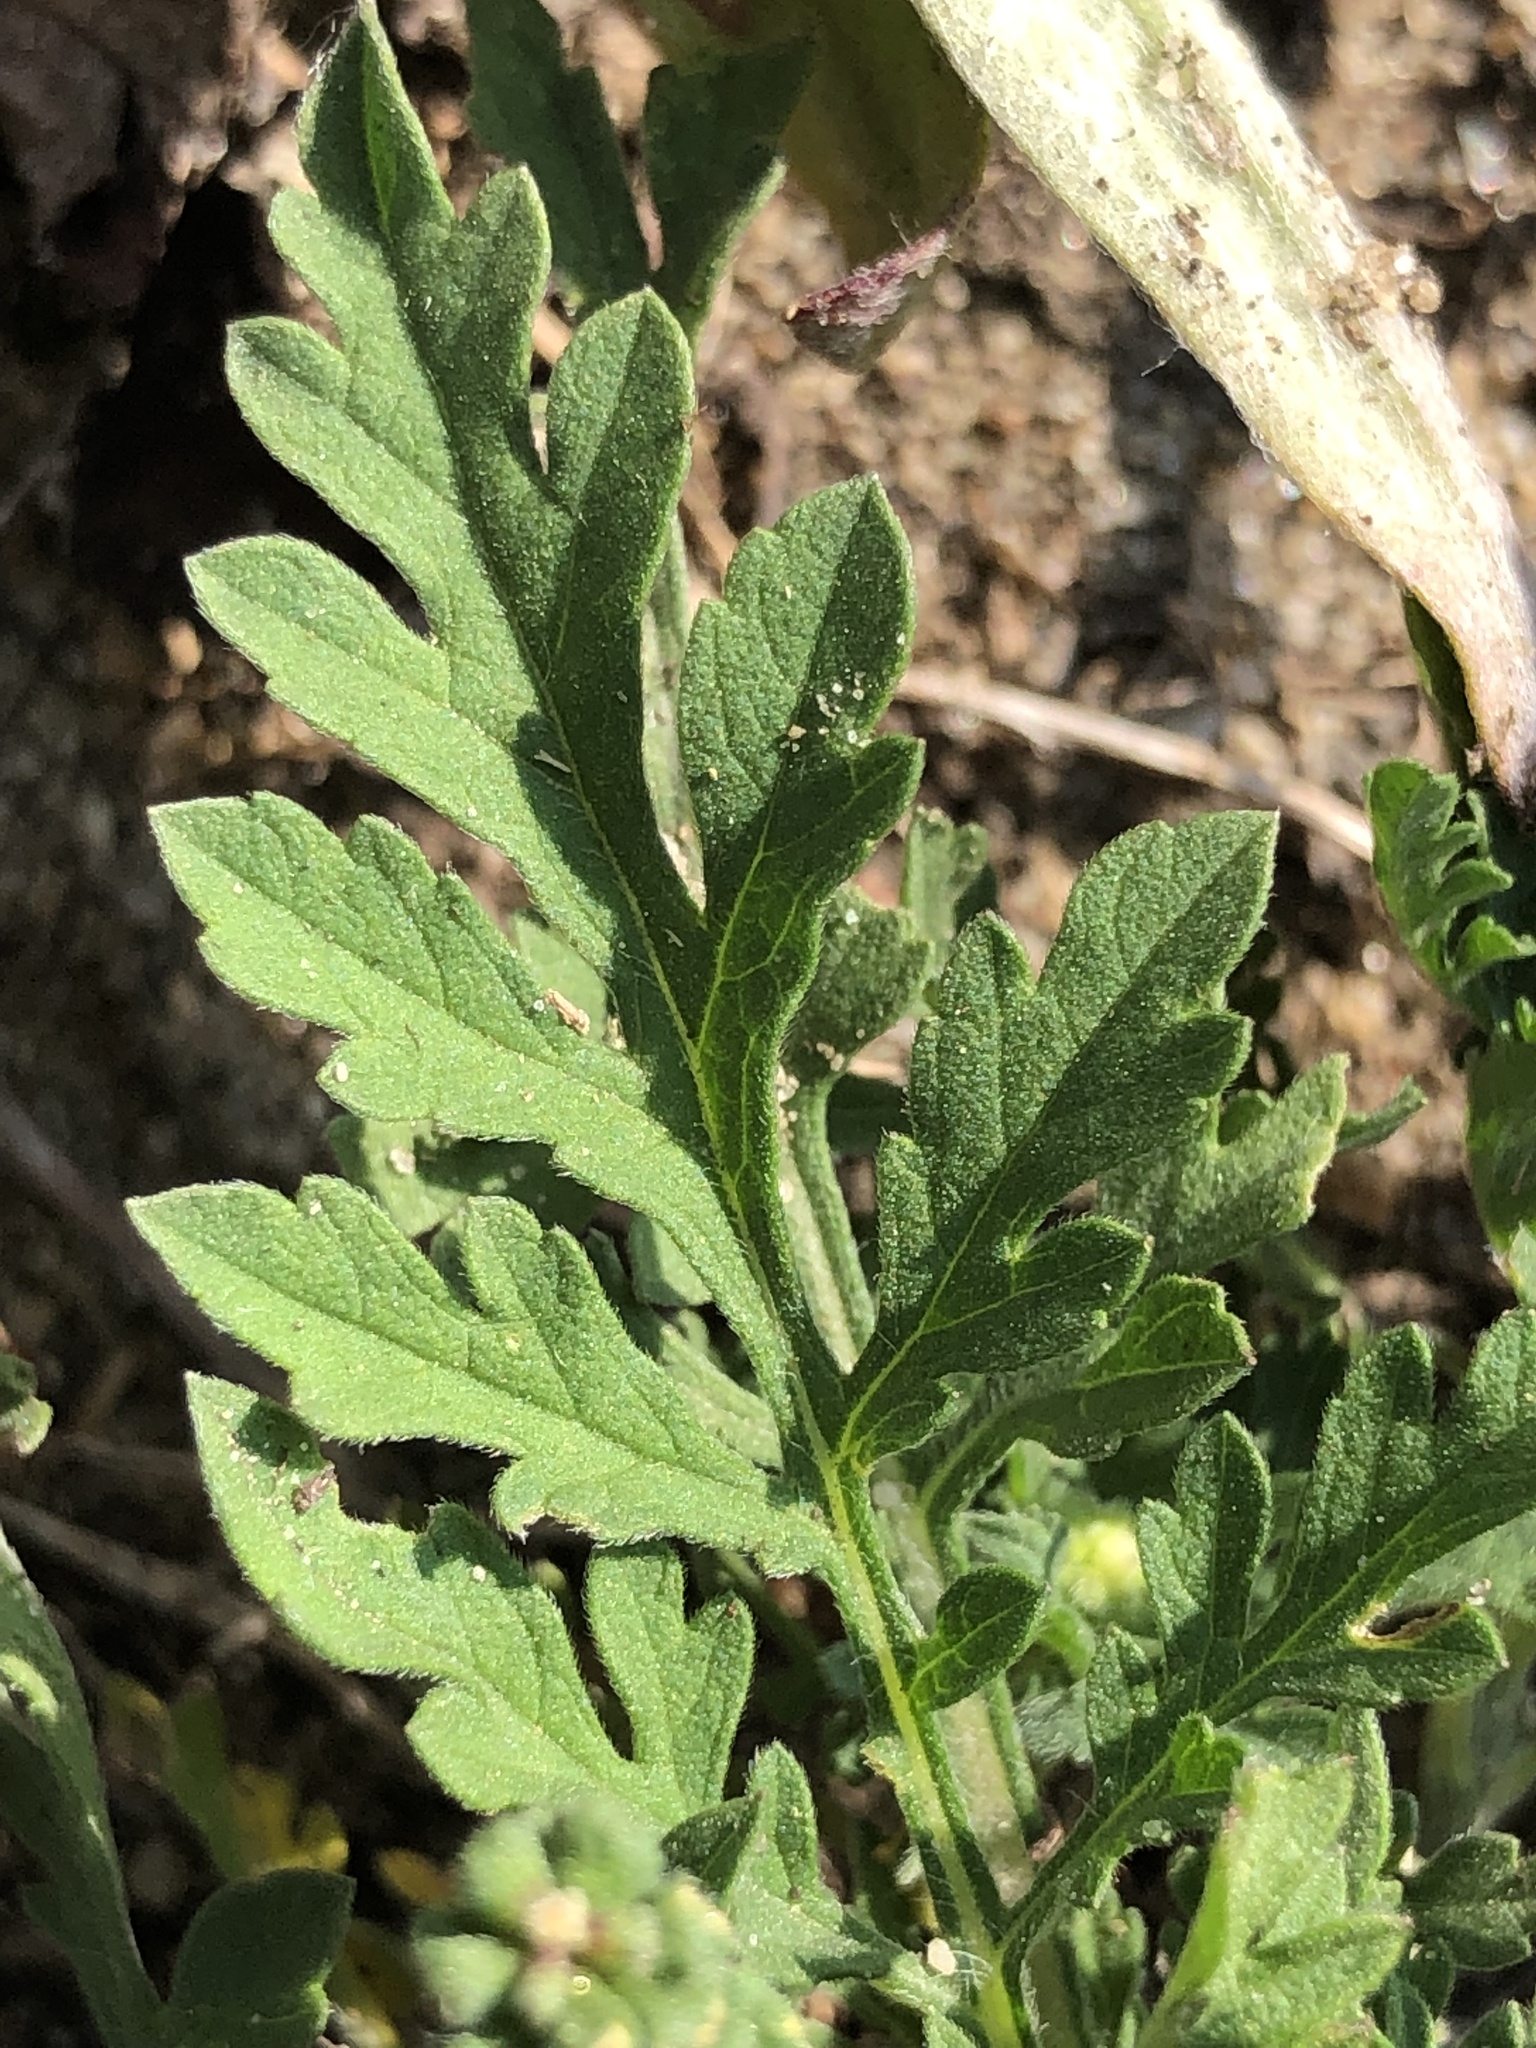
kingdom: Plantae
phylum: Tracheophyta
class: Magnoliopsida
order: Asterales
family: Asteraceae
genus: Ambrosia
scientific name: Ambrosia artemisiifolia
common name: Annual ragweed
